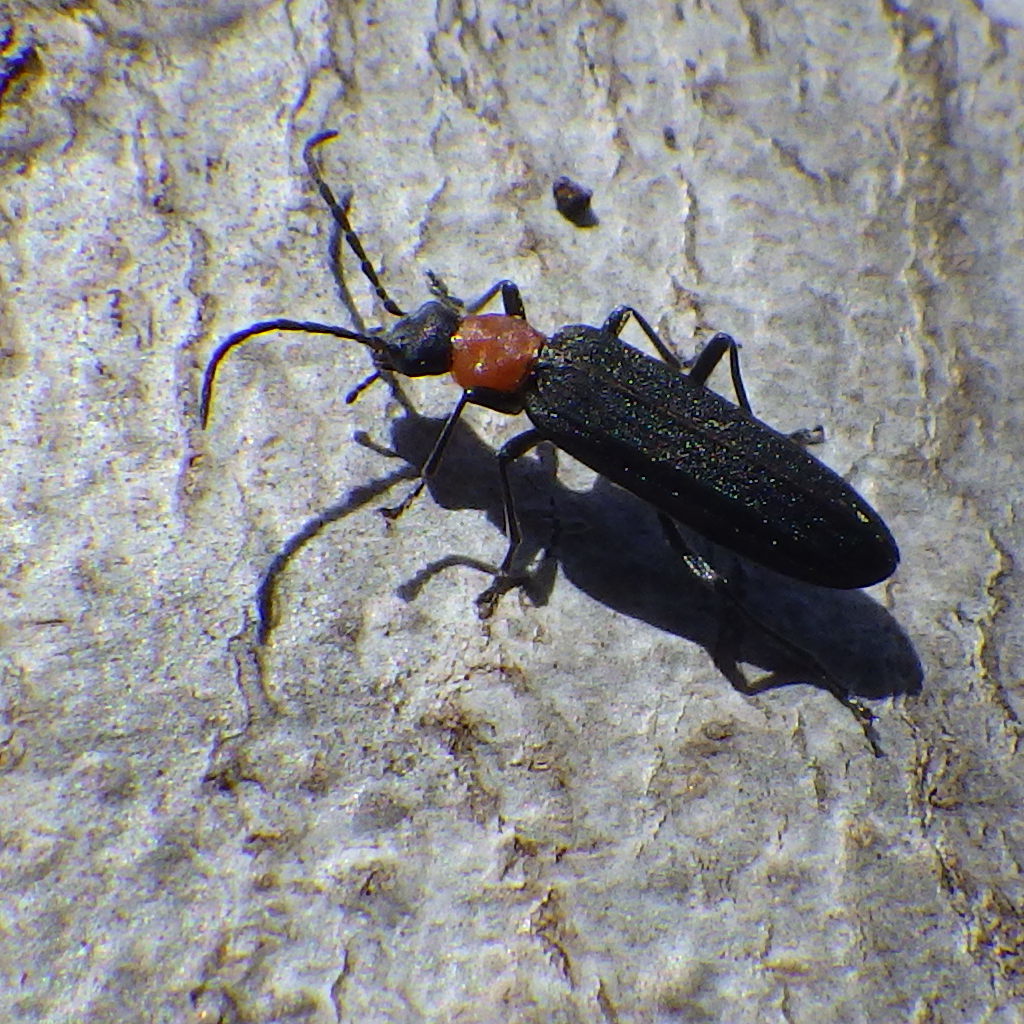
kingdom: Animalia
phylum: Arthropoda
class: Insecta
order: Coleoptera
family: Oedemeridae
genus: Ischnomera
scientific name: Ischnomera
